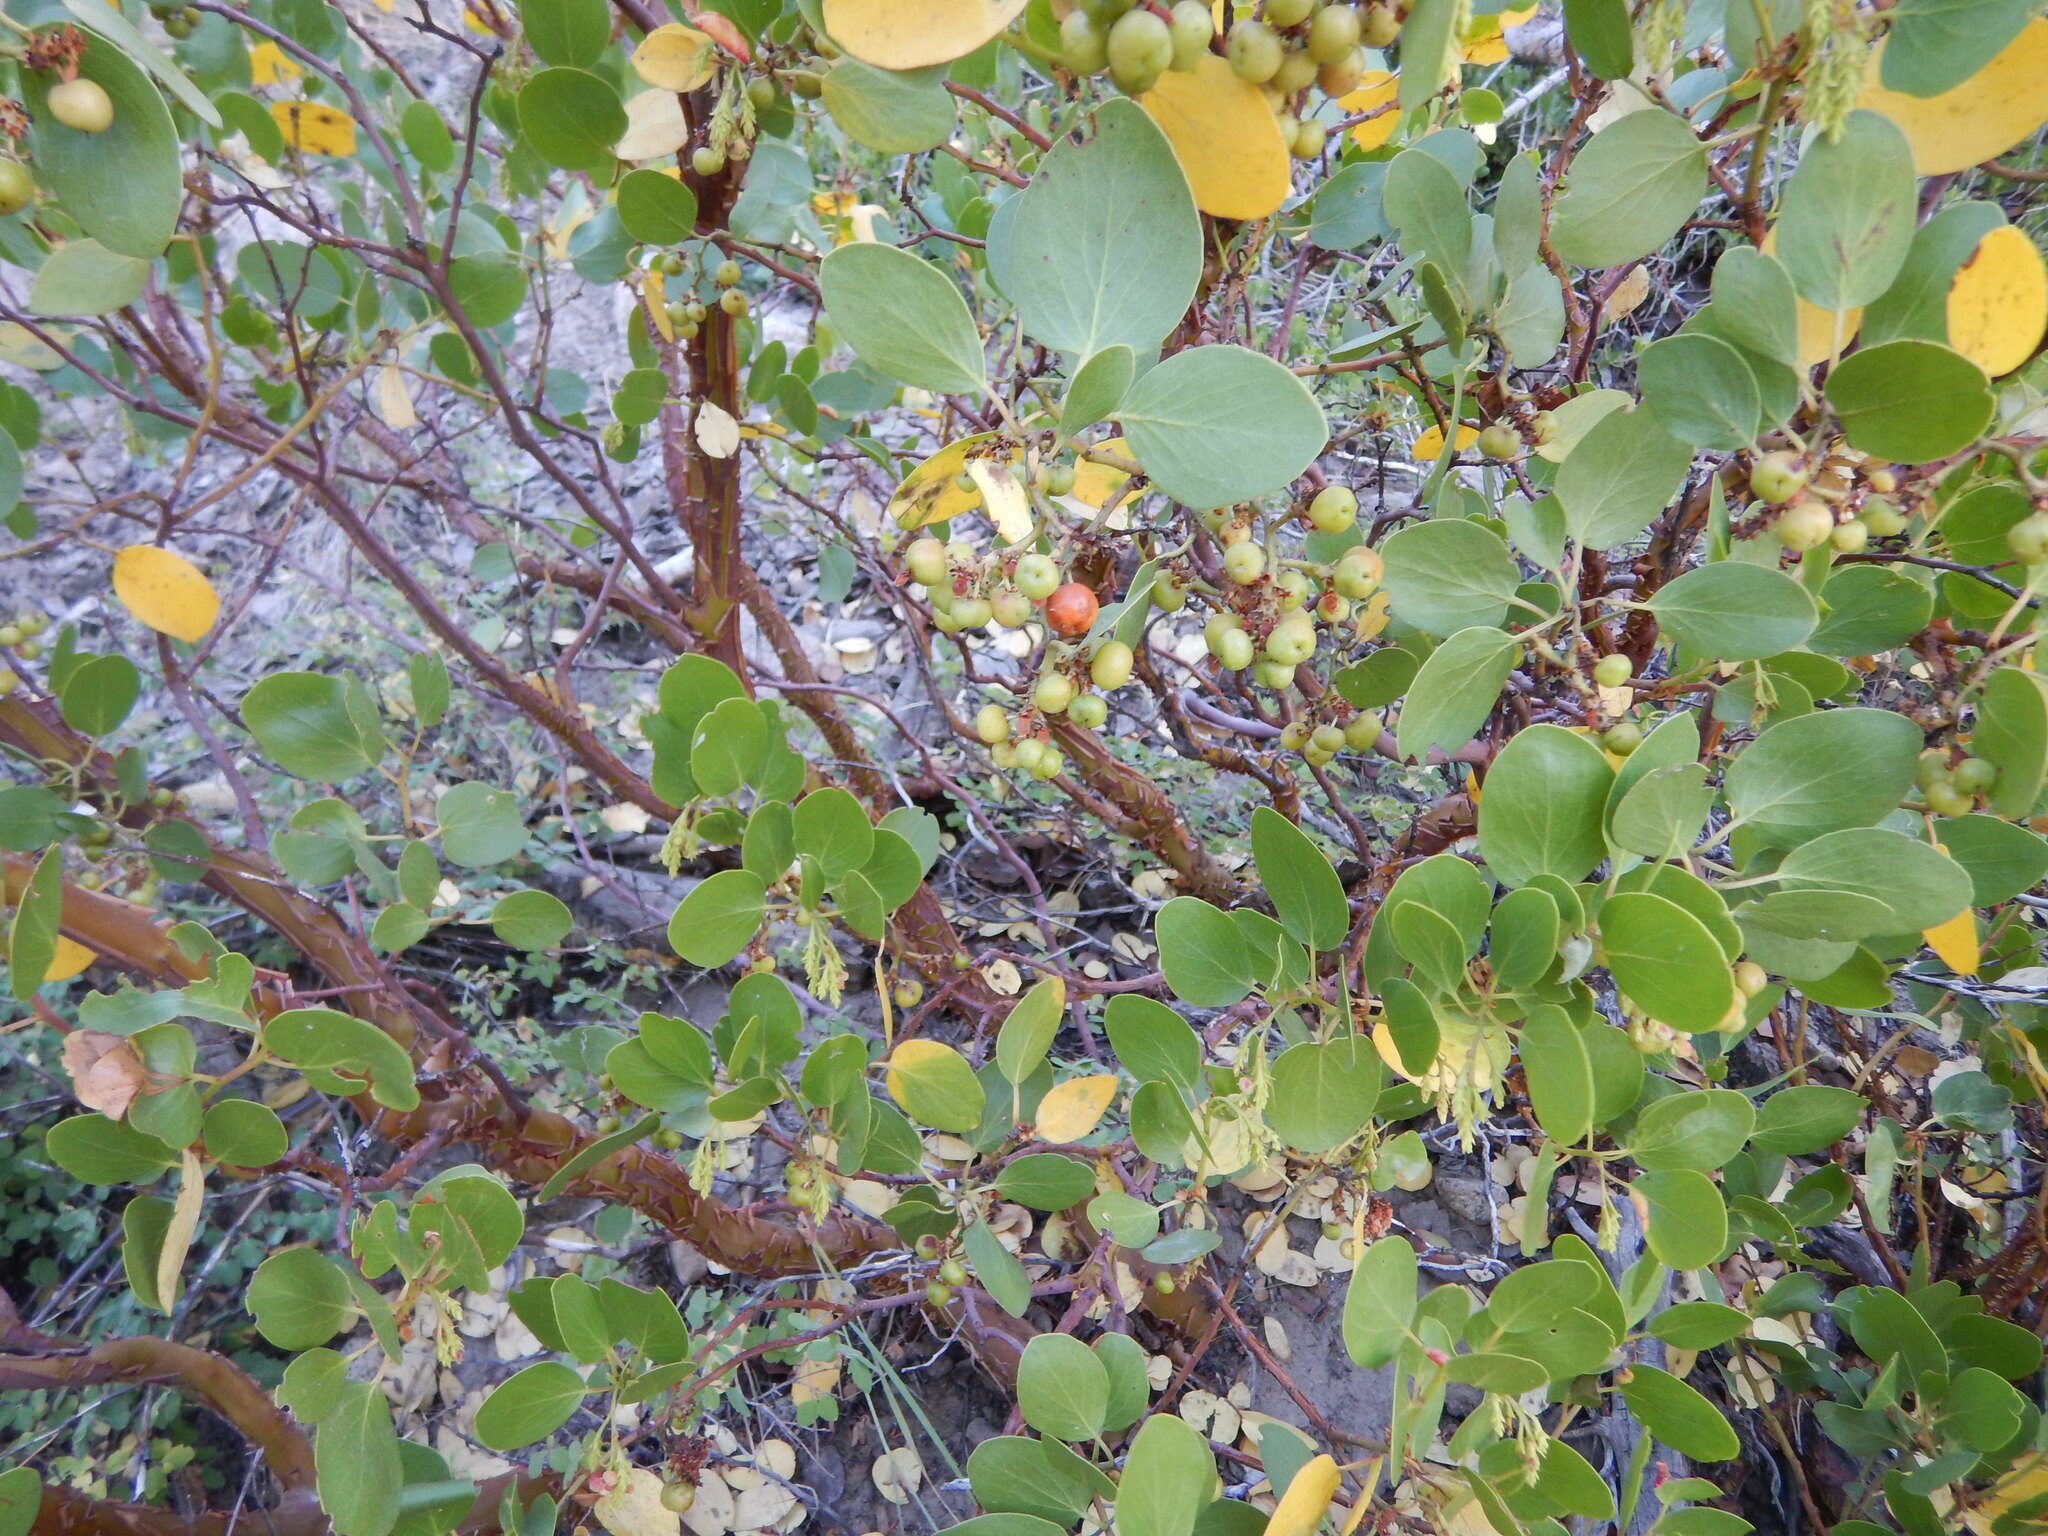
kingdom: Plantae
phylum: Tracheophyta
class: Magnoliopsida
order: Ericales
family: Ericaceae
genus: Arctostaphylos
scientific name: Arctostaphylos patula
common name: Green-leaf manzanita
